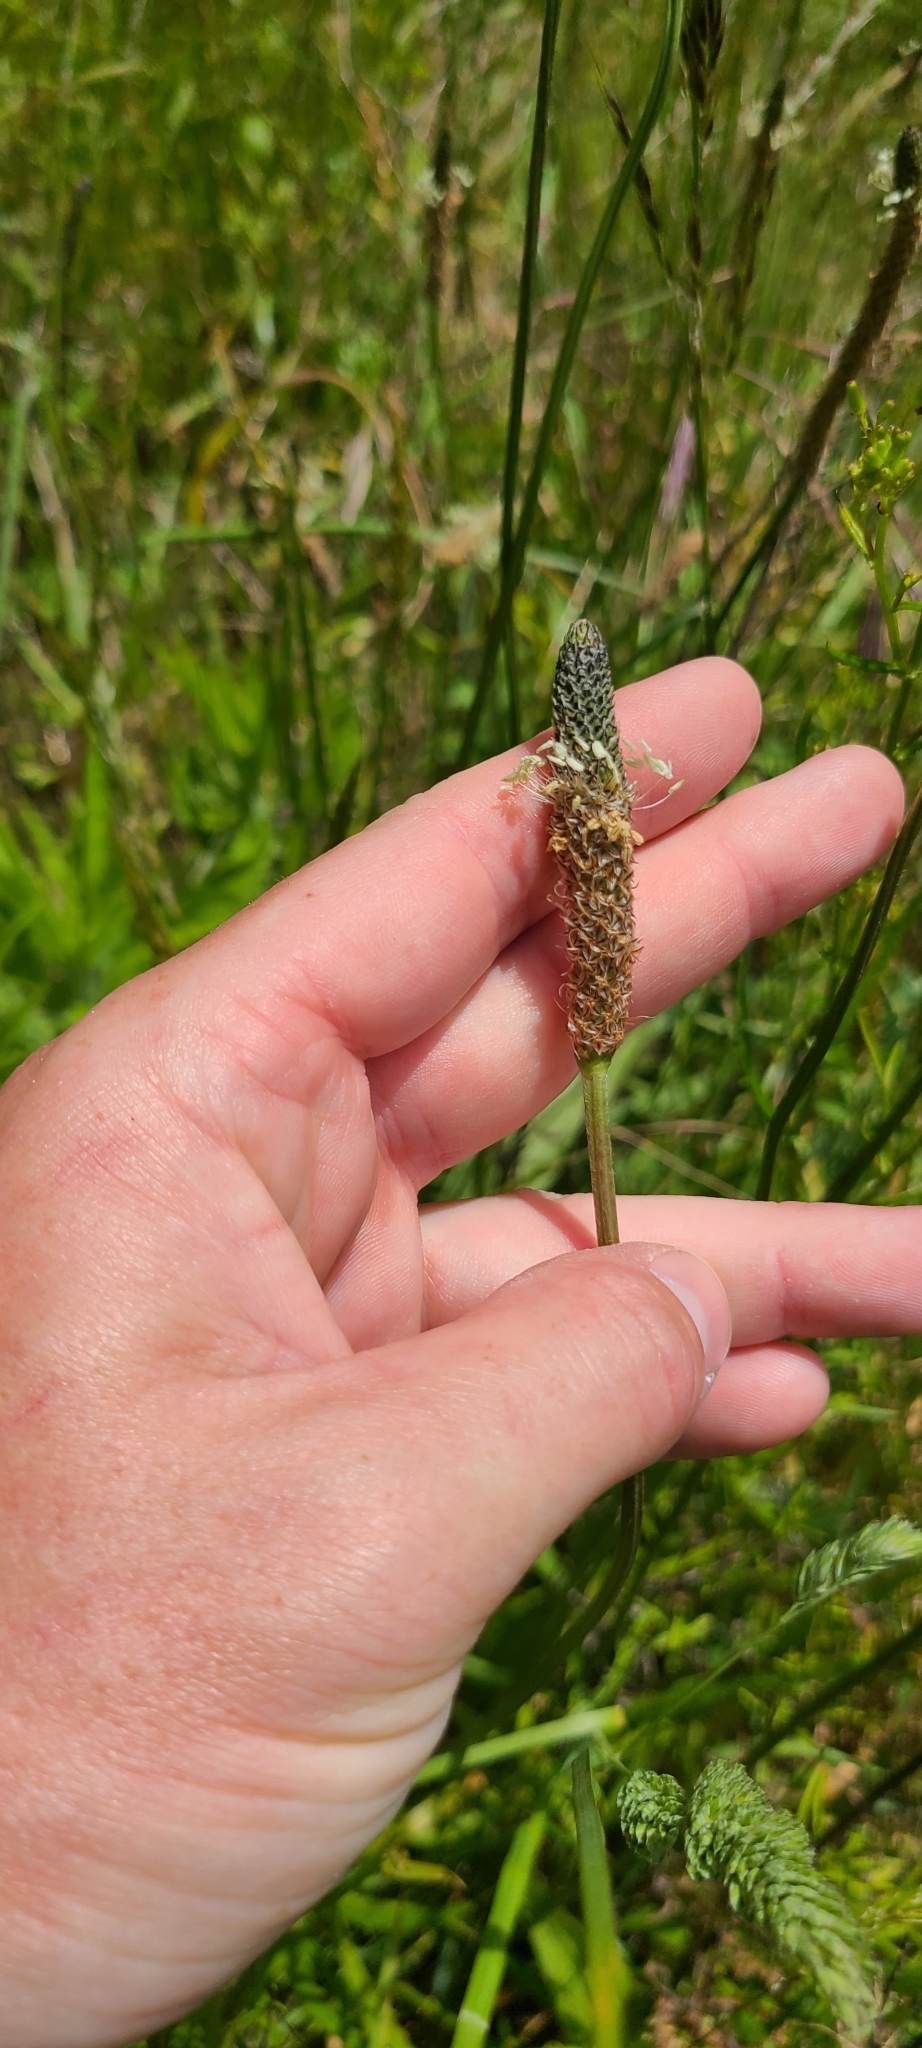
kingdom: Plantae
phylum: Tracheophyta
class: Magnoliopsida
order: Lamiales
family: Plantaginaceae
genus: Plantago
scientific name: Plantago lanceolata
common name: Ribwort plantain
